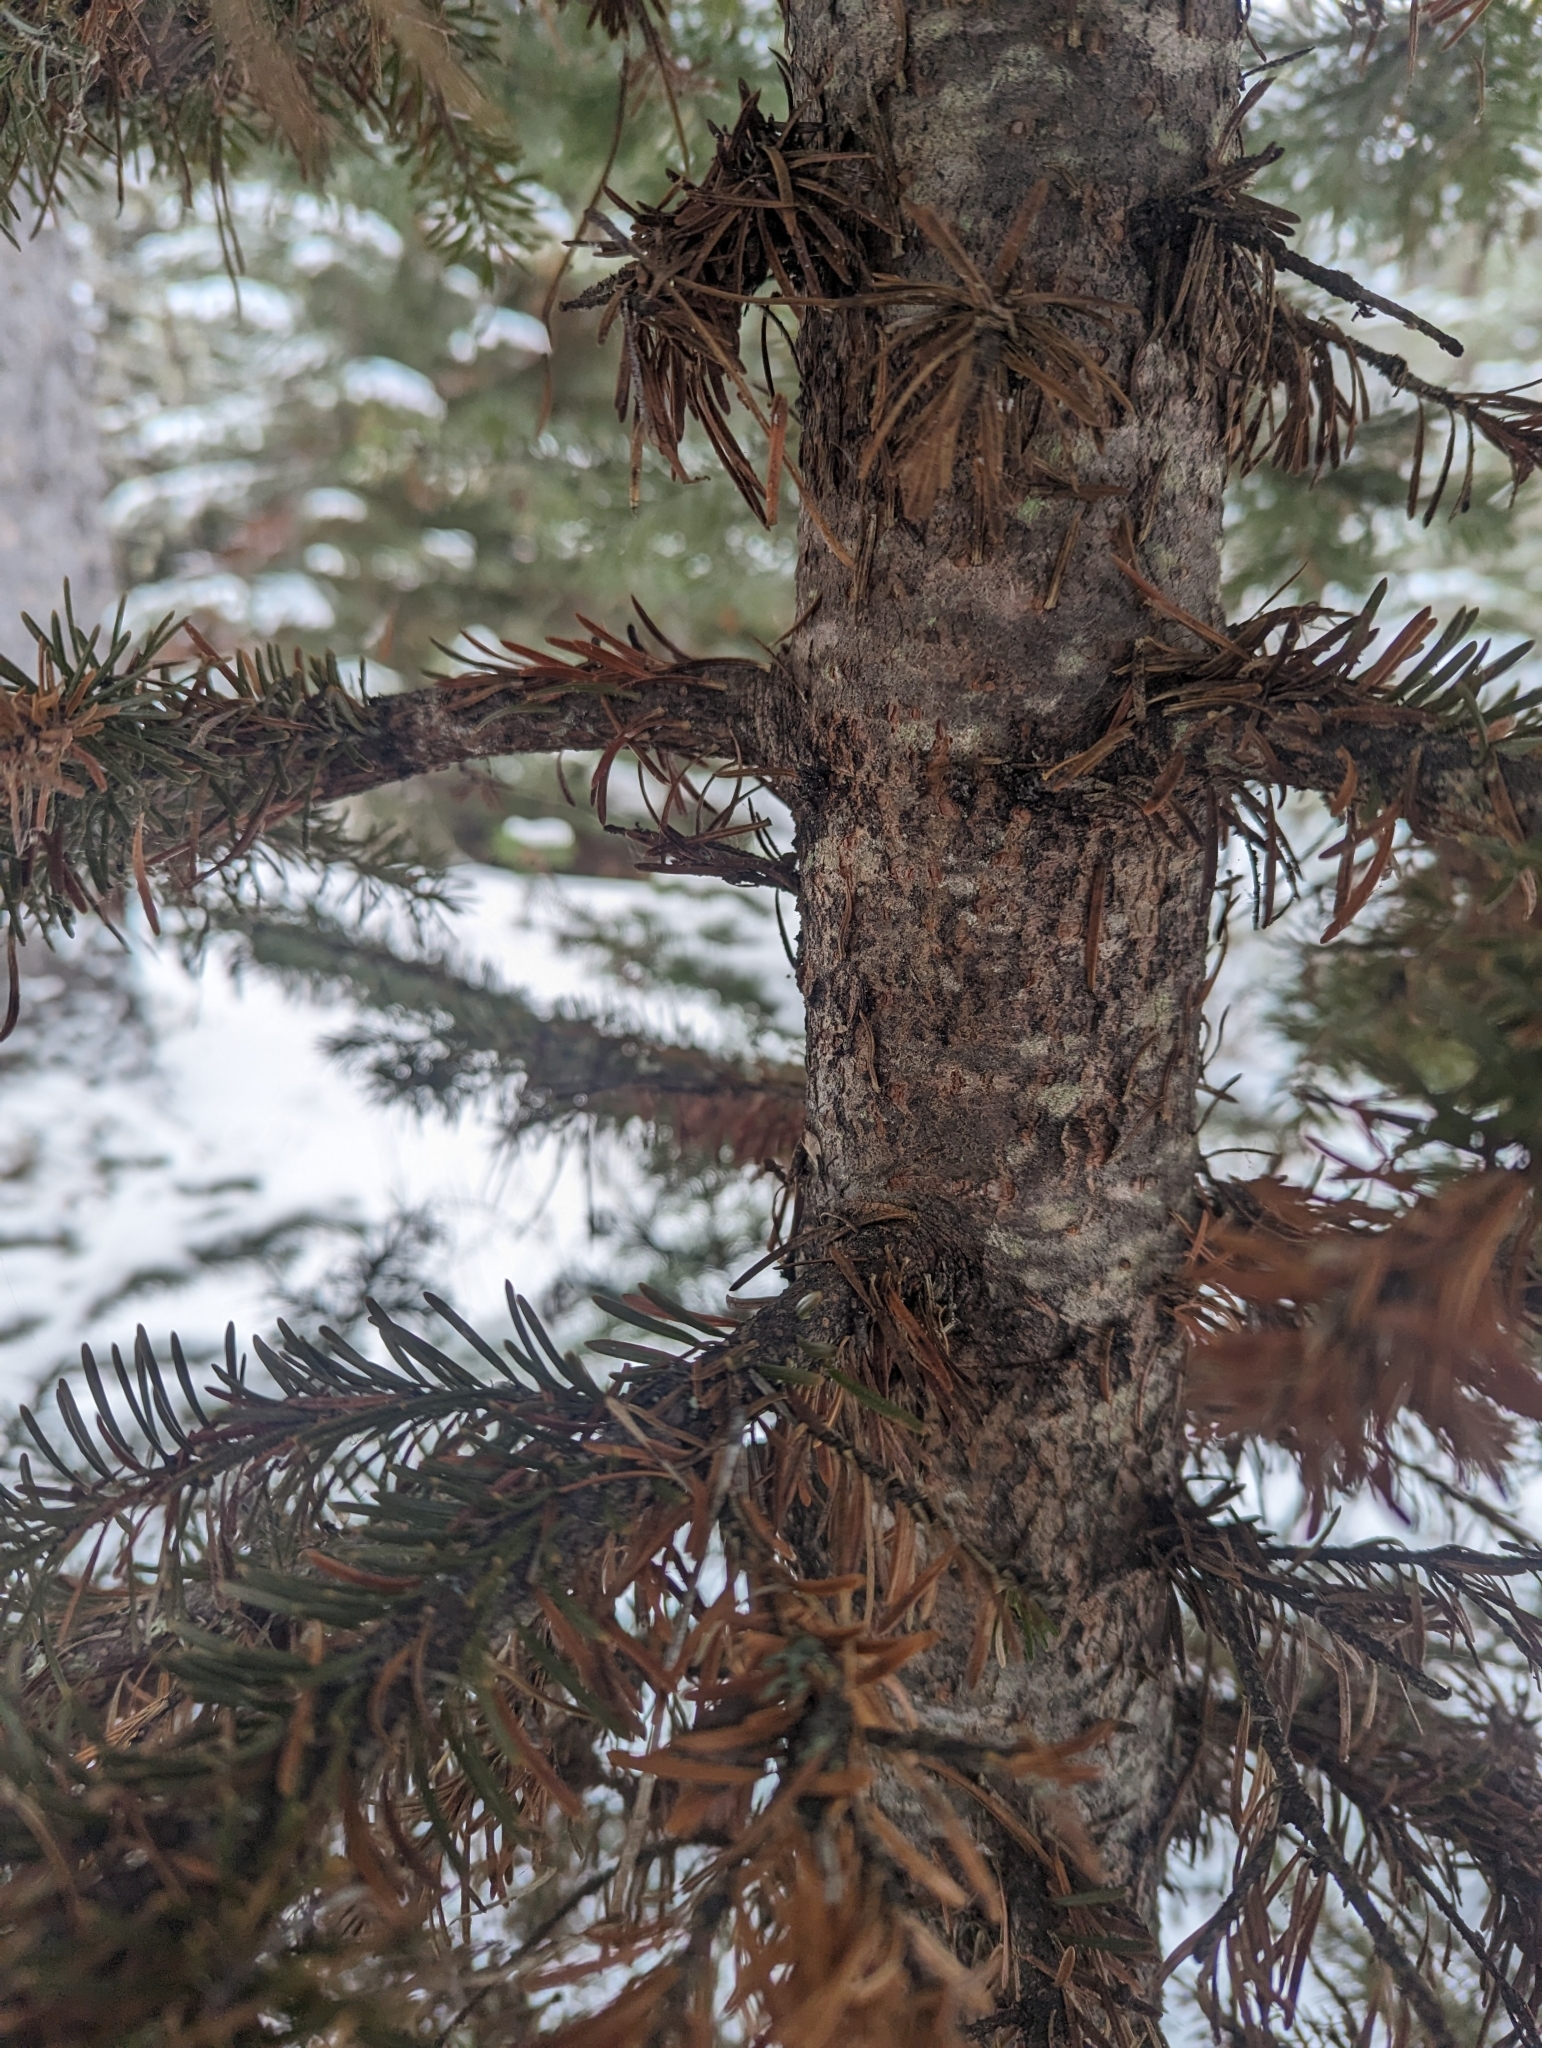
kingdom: Plantae
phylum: Tracheophyta
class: Pinopsida
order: Pinales
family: Pinaceae
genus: Abies
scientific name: Abies lasiocarpa
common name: Subalpine fir
